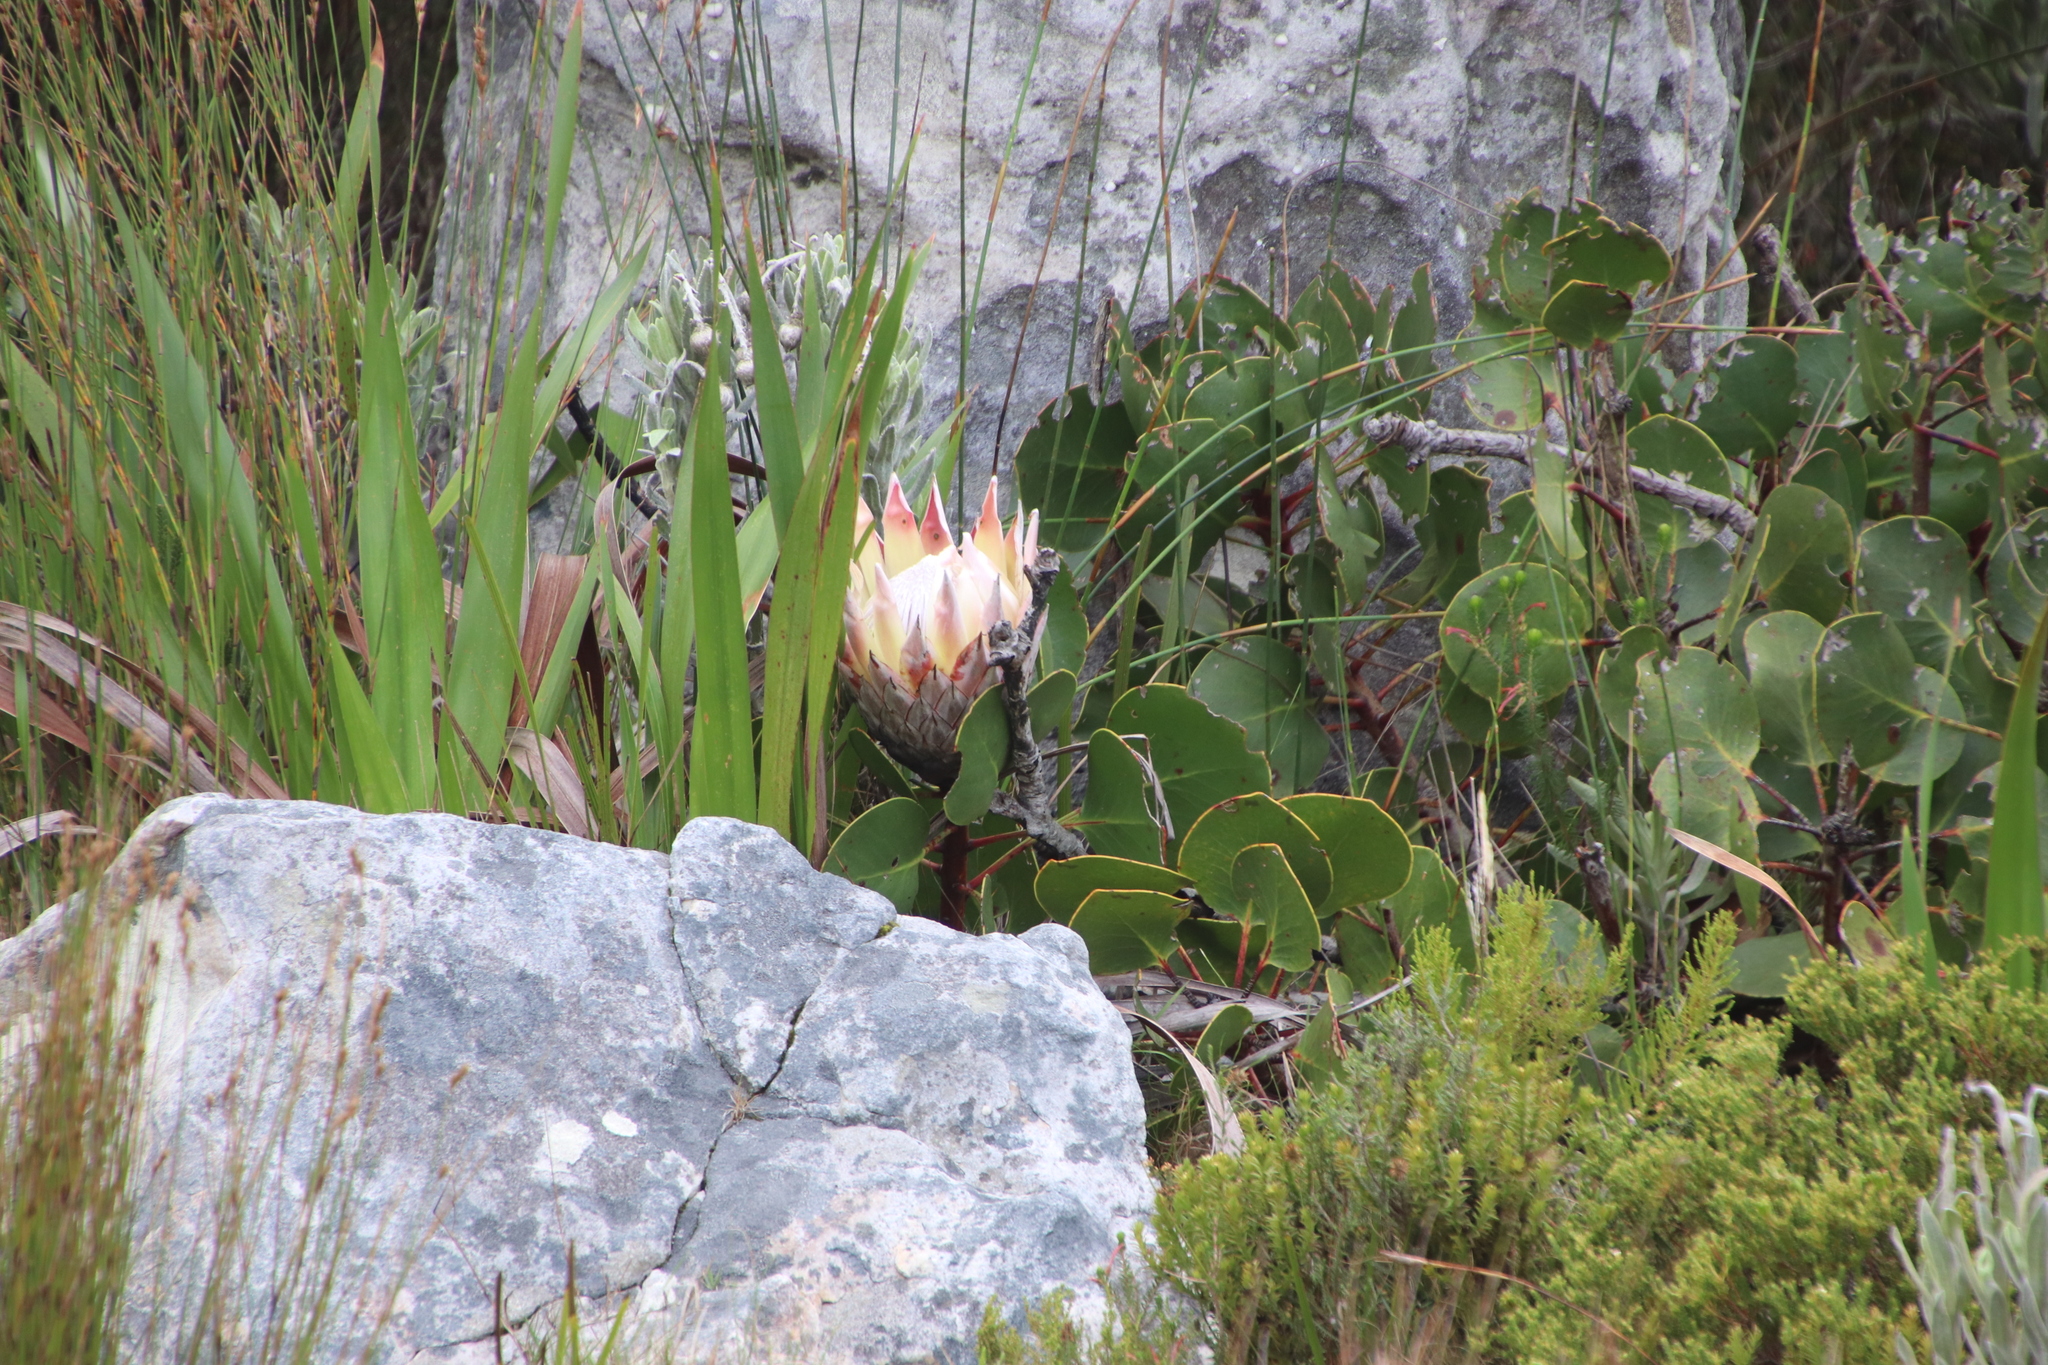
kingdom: Plantae
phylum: Tracheophyta
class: Magnoliopsida
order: Proteales
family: Proteaceae
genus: Protea
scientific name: Protea cynaroides
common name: King protea
